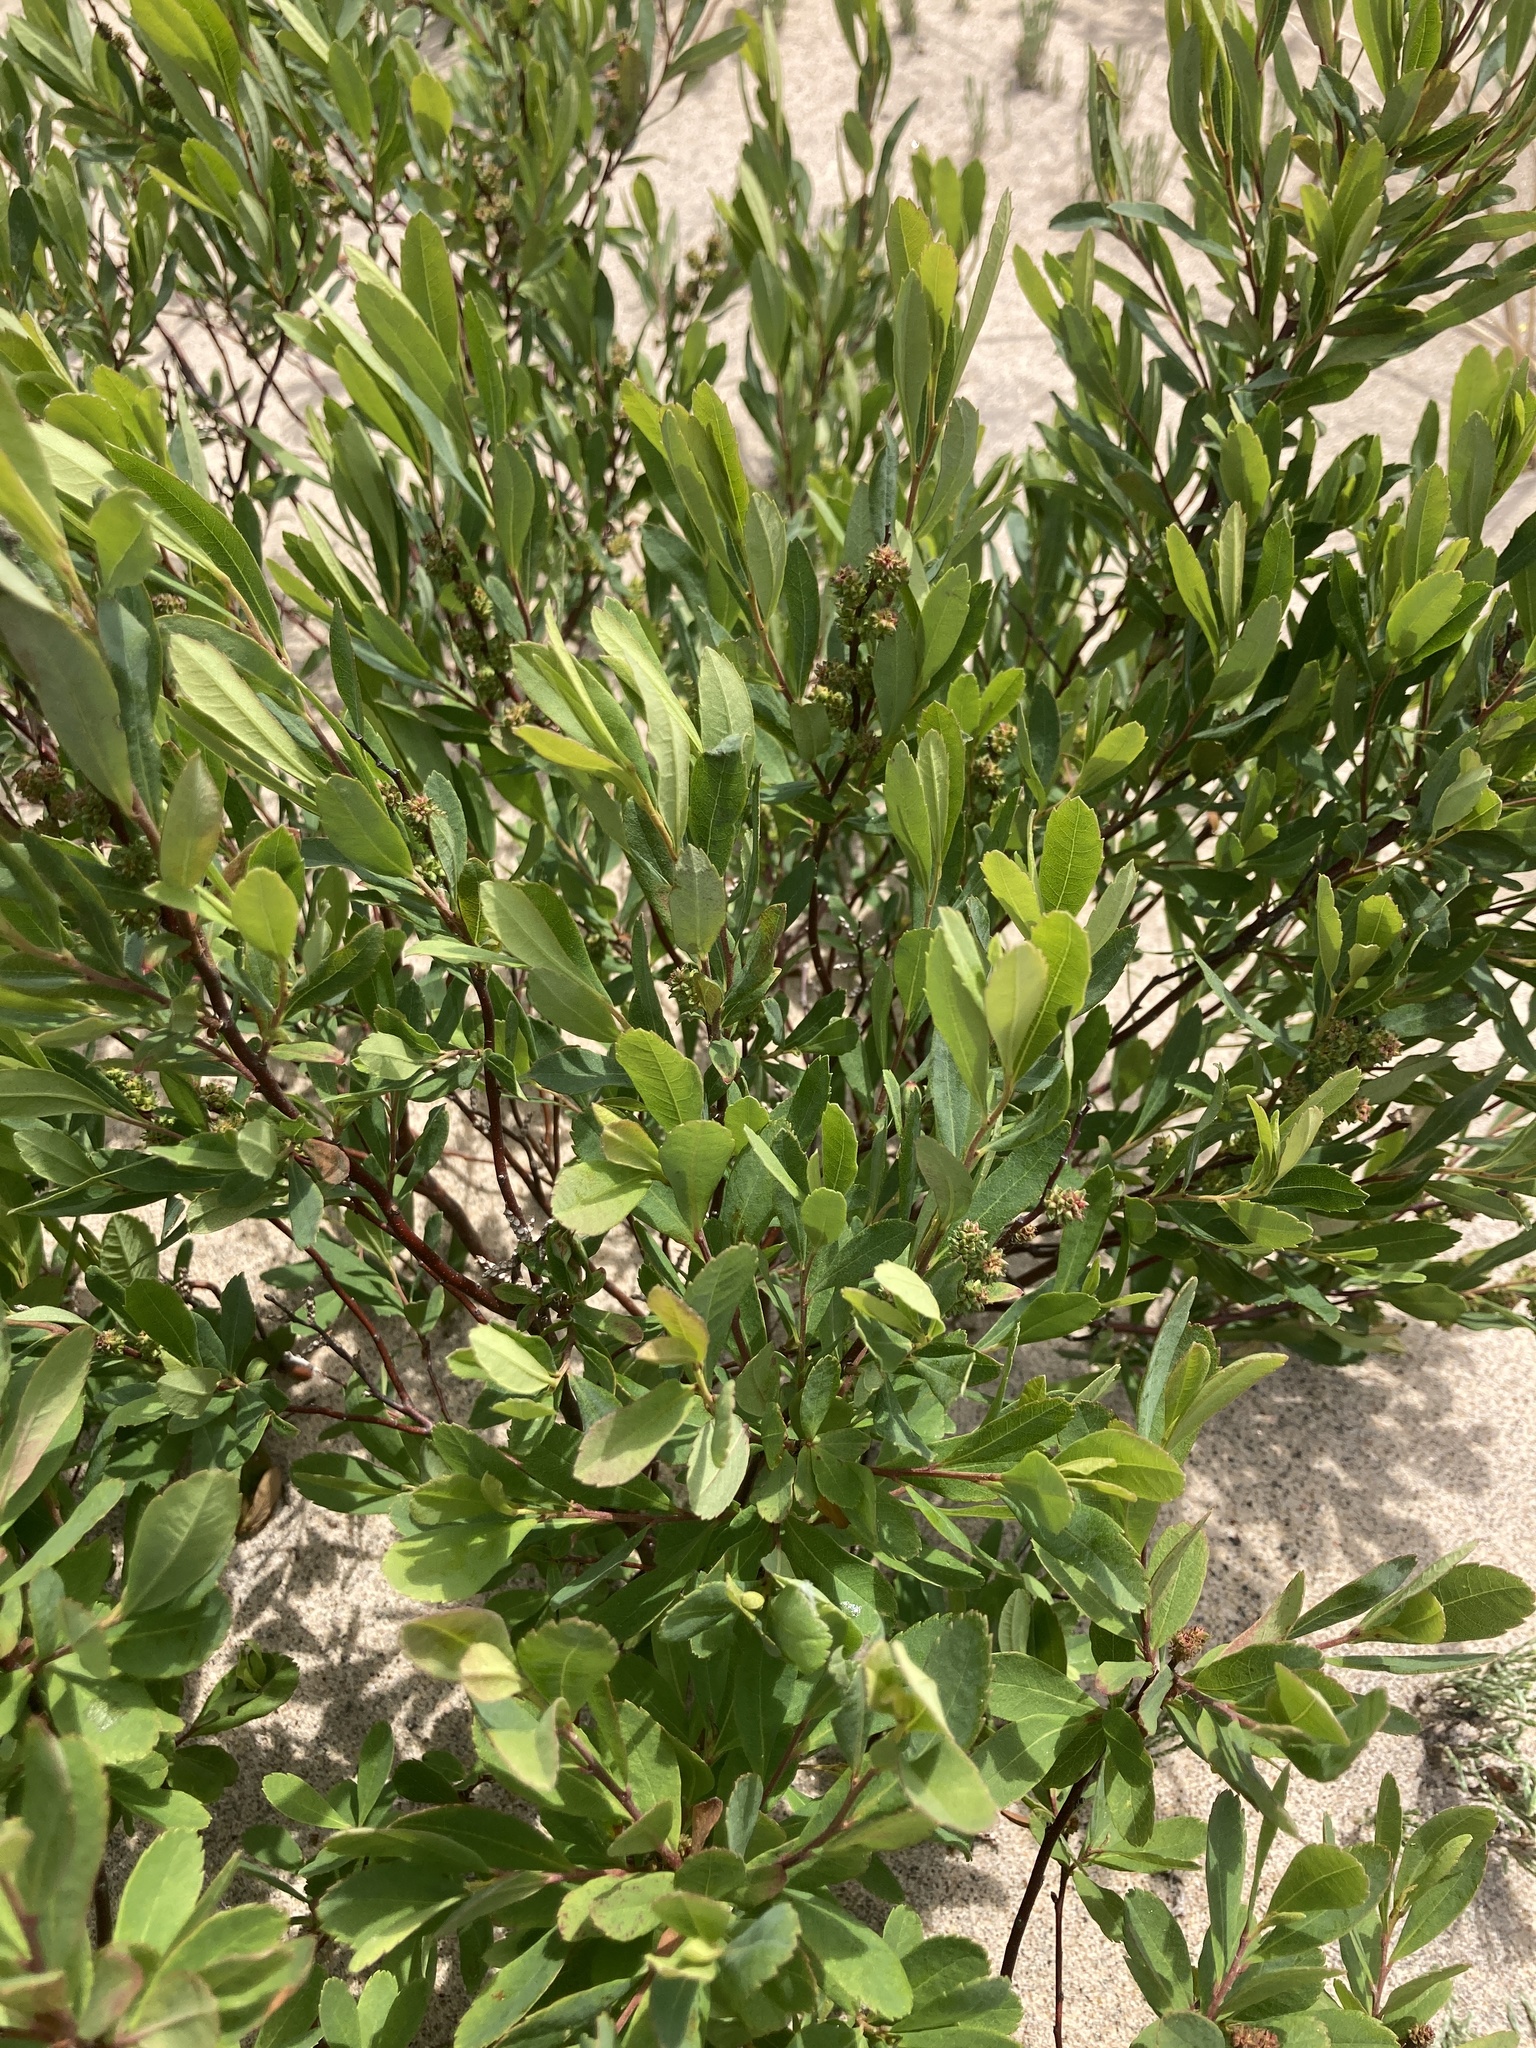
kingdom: Plantae
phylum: Tracheophyta
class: Magnoliopsida
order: Fagales
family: Myricaceae
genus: Myrica
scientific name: Myrica gale
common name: Sweet gale
